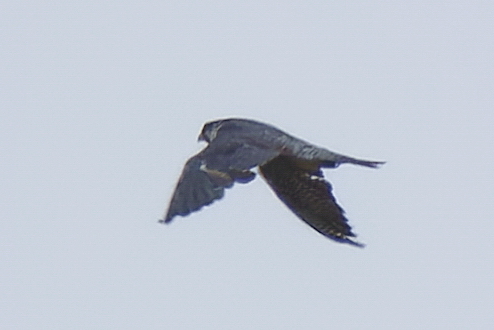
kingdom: Animalia
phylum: Chordata
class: Aves
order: Falconiformes
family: Falconidae
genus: Falco
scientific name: Falco peregrinus
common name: Peregrine falcon
